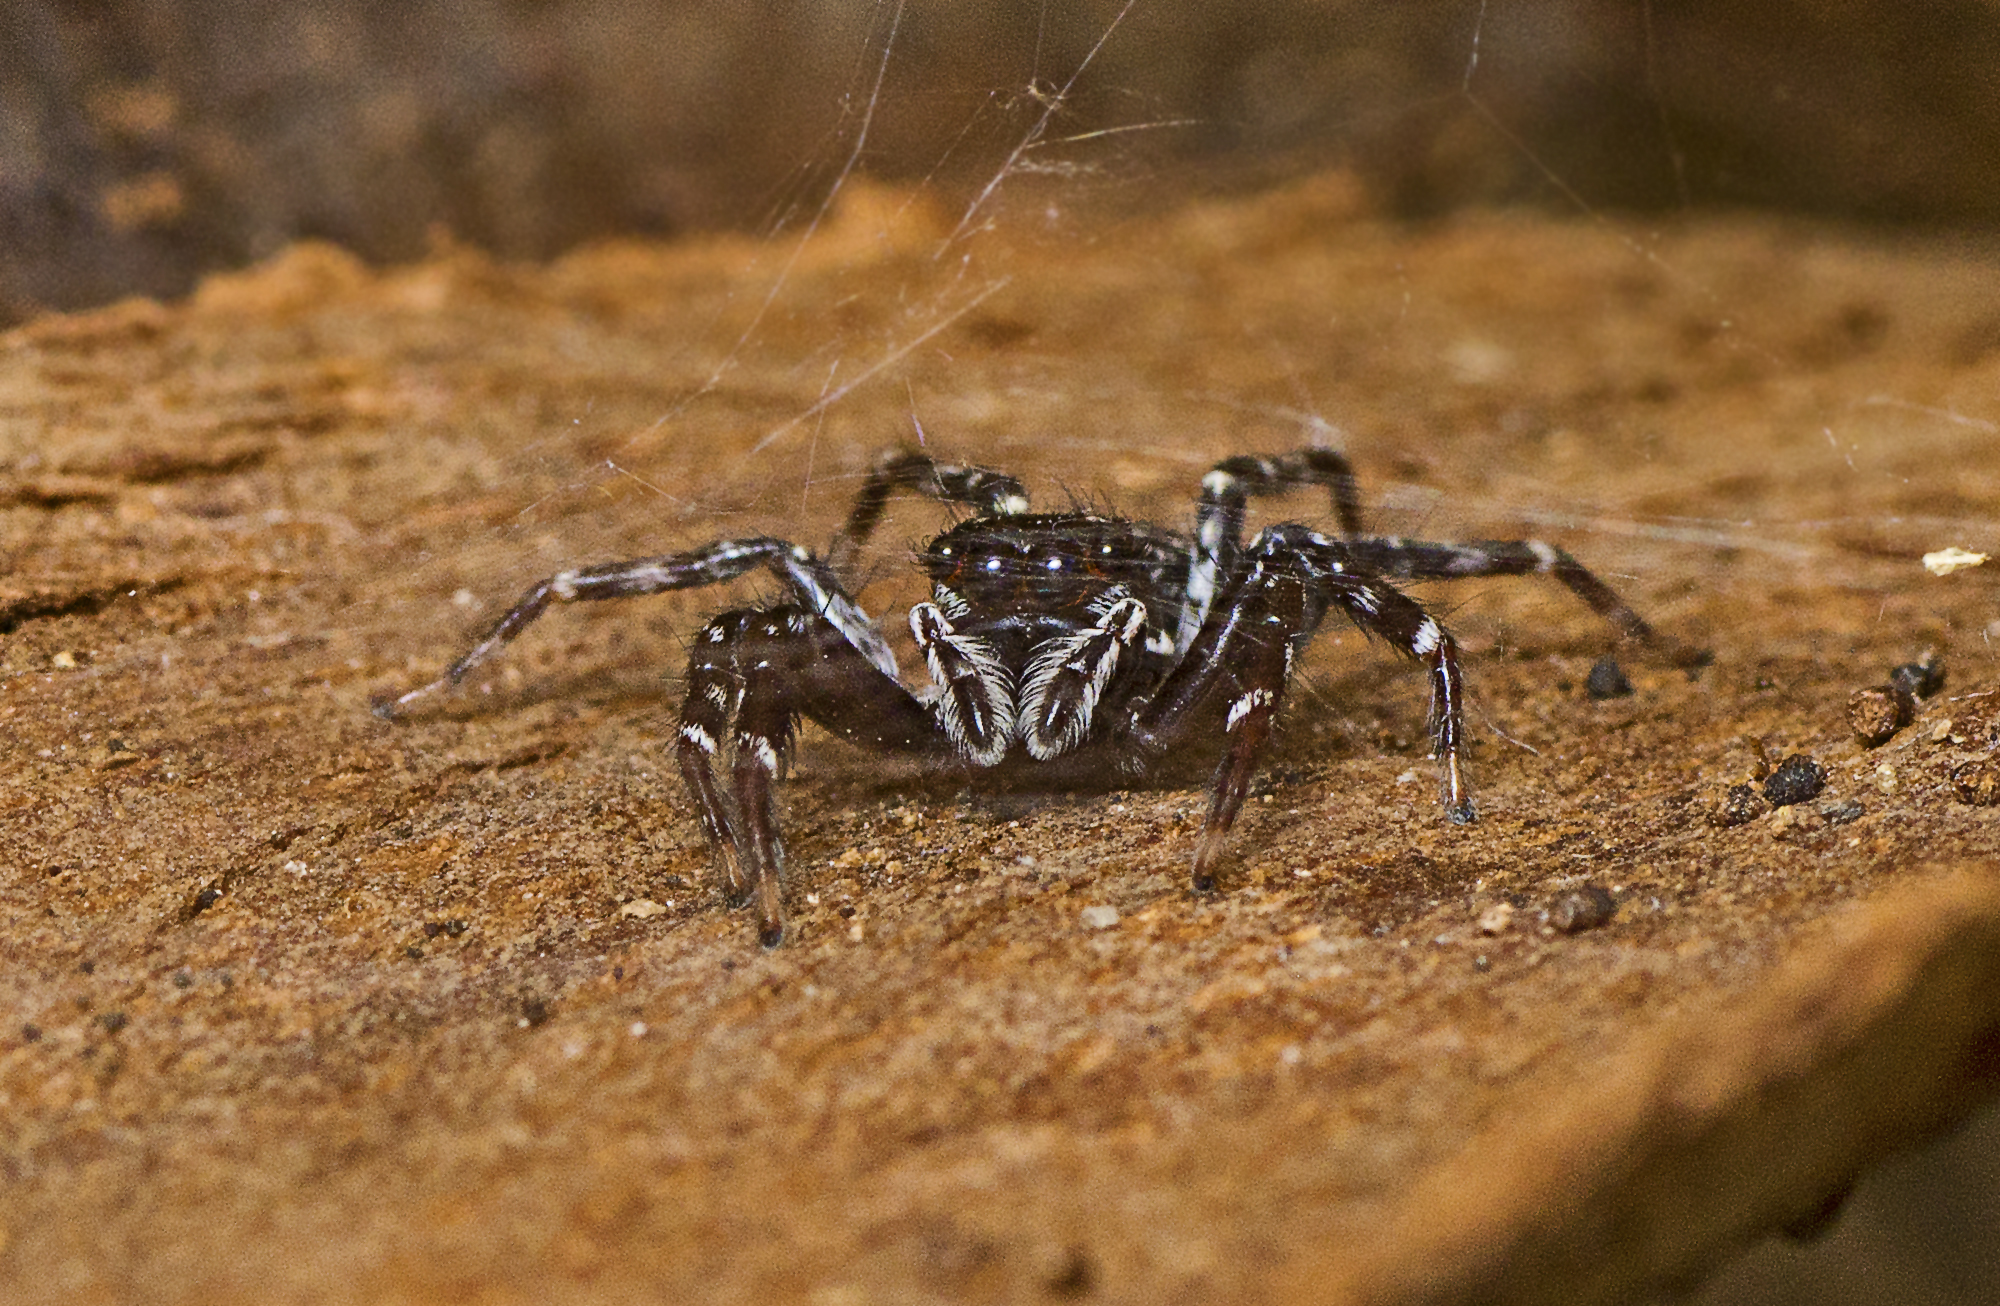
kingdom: Animalia
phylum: Arthropoda
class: Arachnida
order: Araneae
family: Salticidae
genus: Astia
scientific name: Astia
